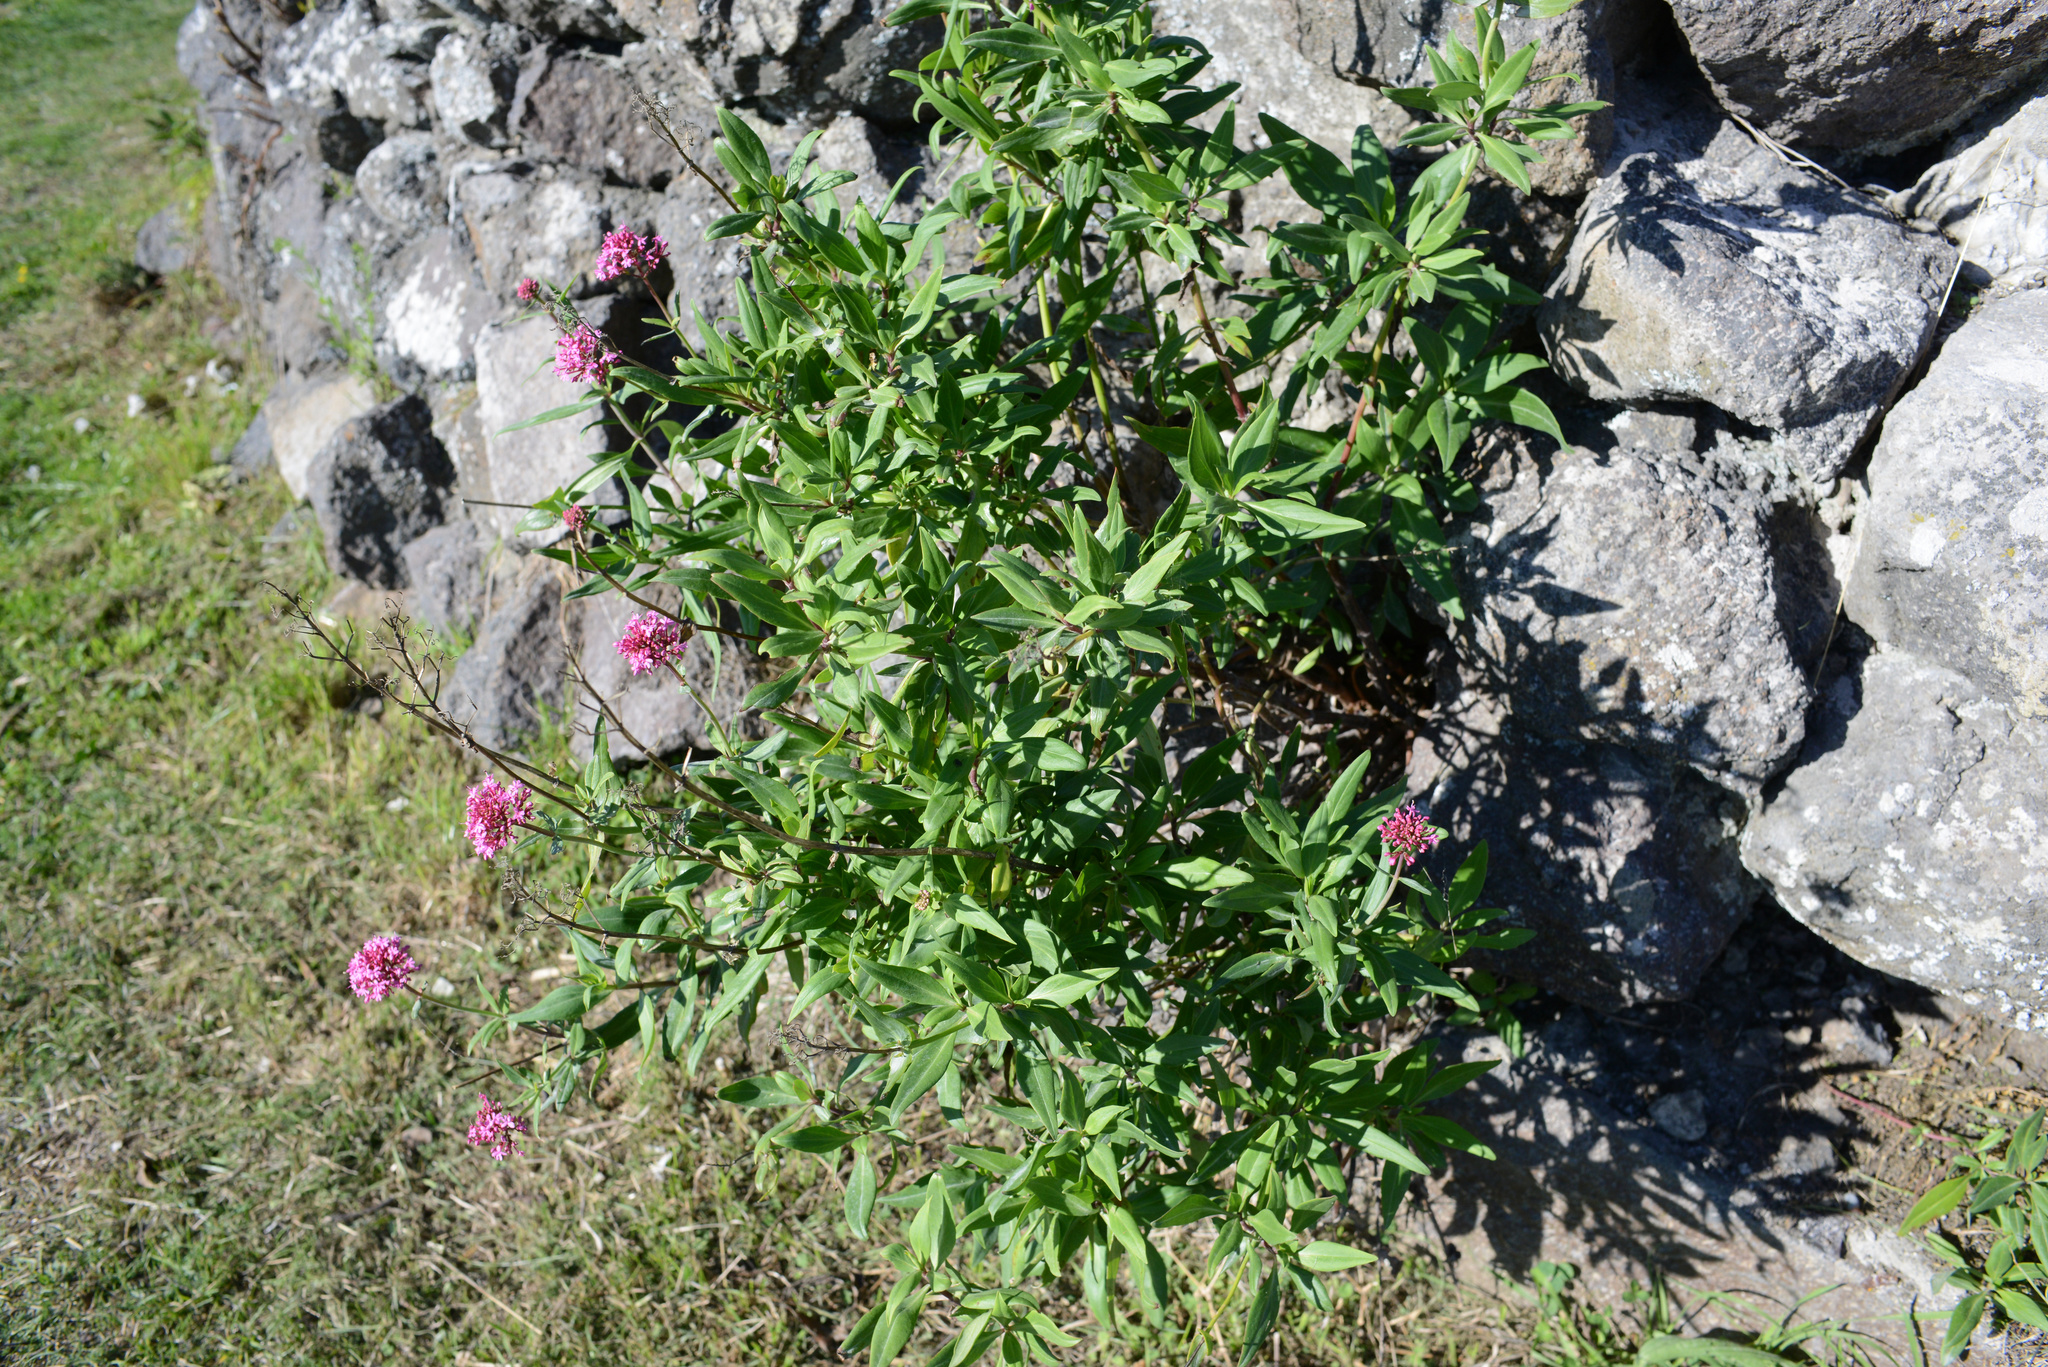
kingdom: Plantae
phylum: Tracheophyta
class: Magnoliopsida
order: Dipsacales
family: Caprifoliaceae
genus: Centranthus
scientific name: Centranthus ruber
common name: Red valerian
